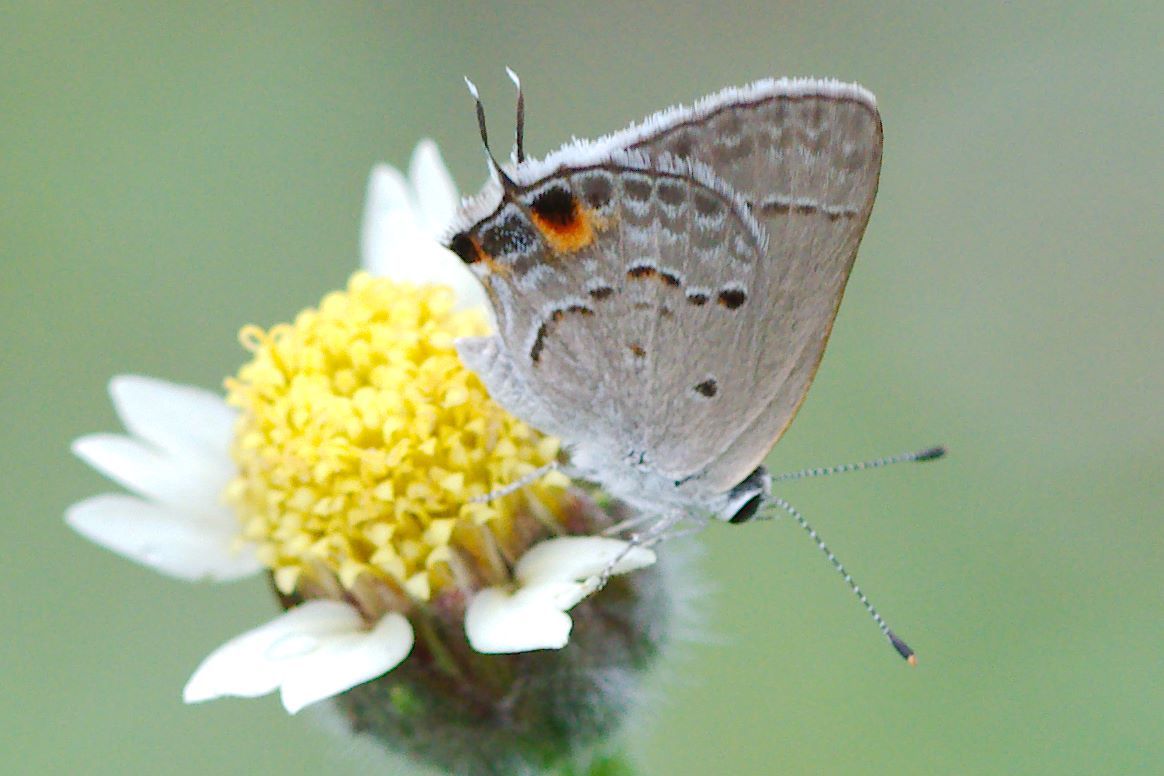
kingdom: Animalia
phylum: Arthropoda
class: Insecta
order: Lepidoptera
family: Lycaenidae
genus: Callicista
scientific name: Callicista columella
